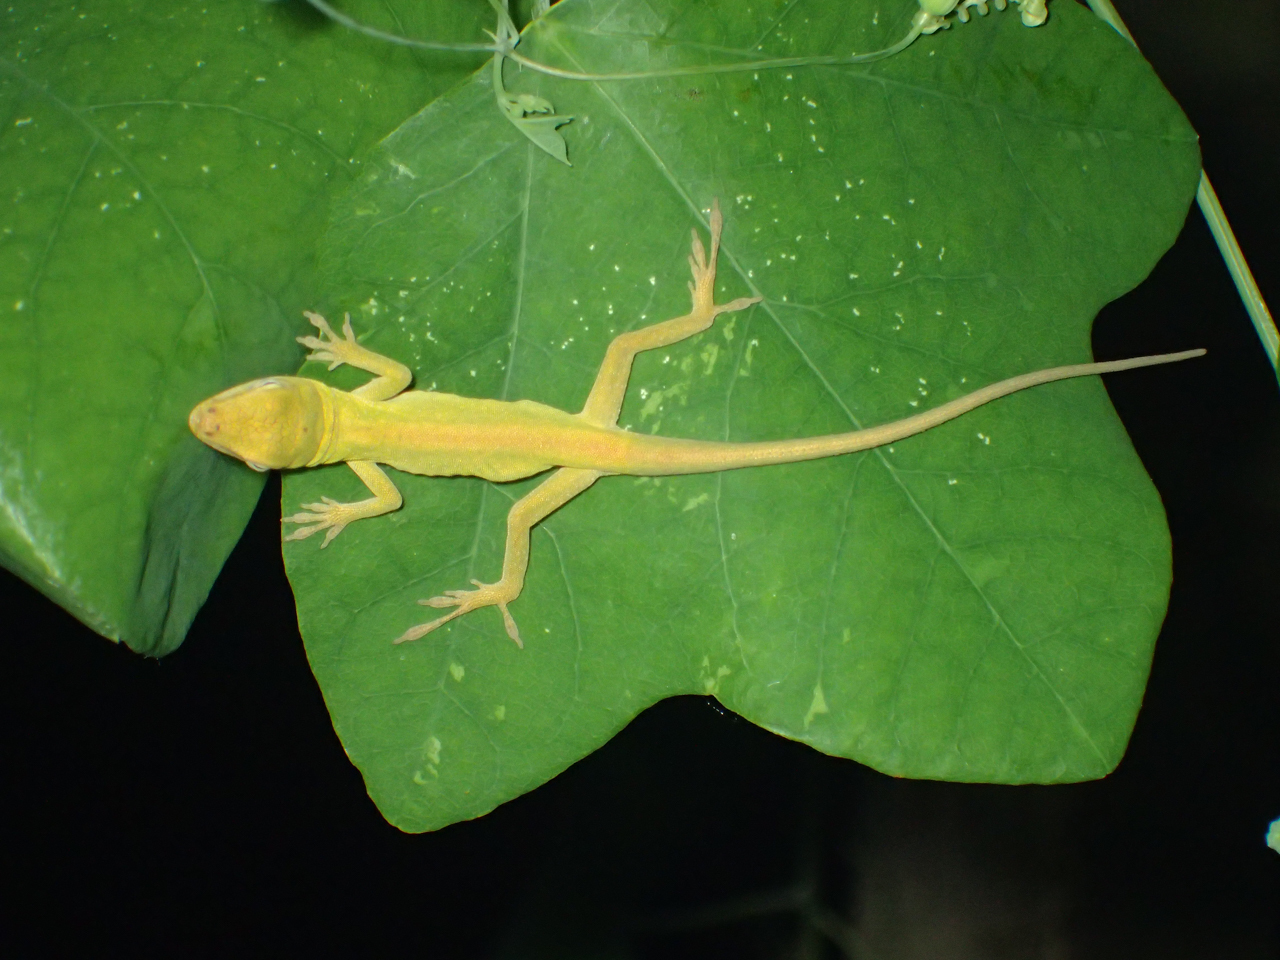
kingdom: Animalia
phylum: Chordata
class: Squamata
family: Dactyloidae
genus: Anolis
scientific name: Anolis carolinensis
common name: Green anole
